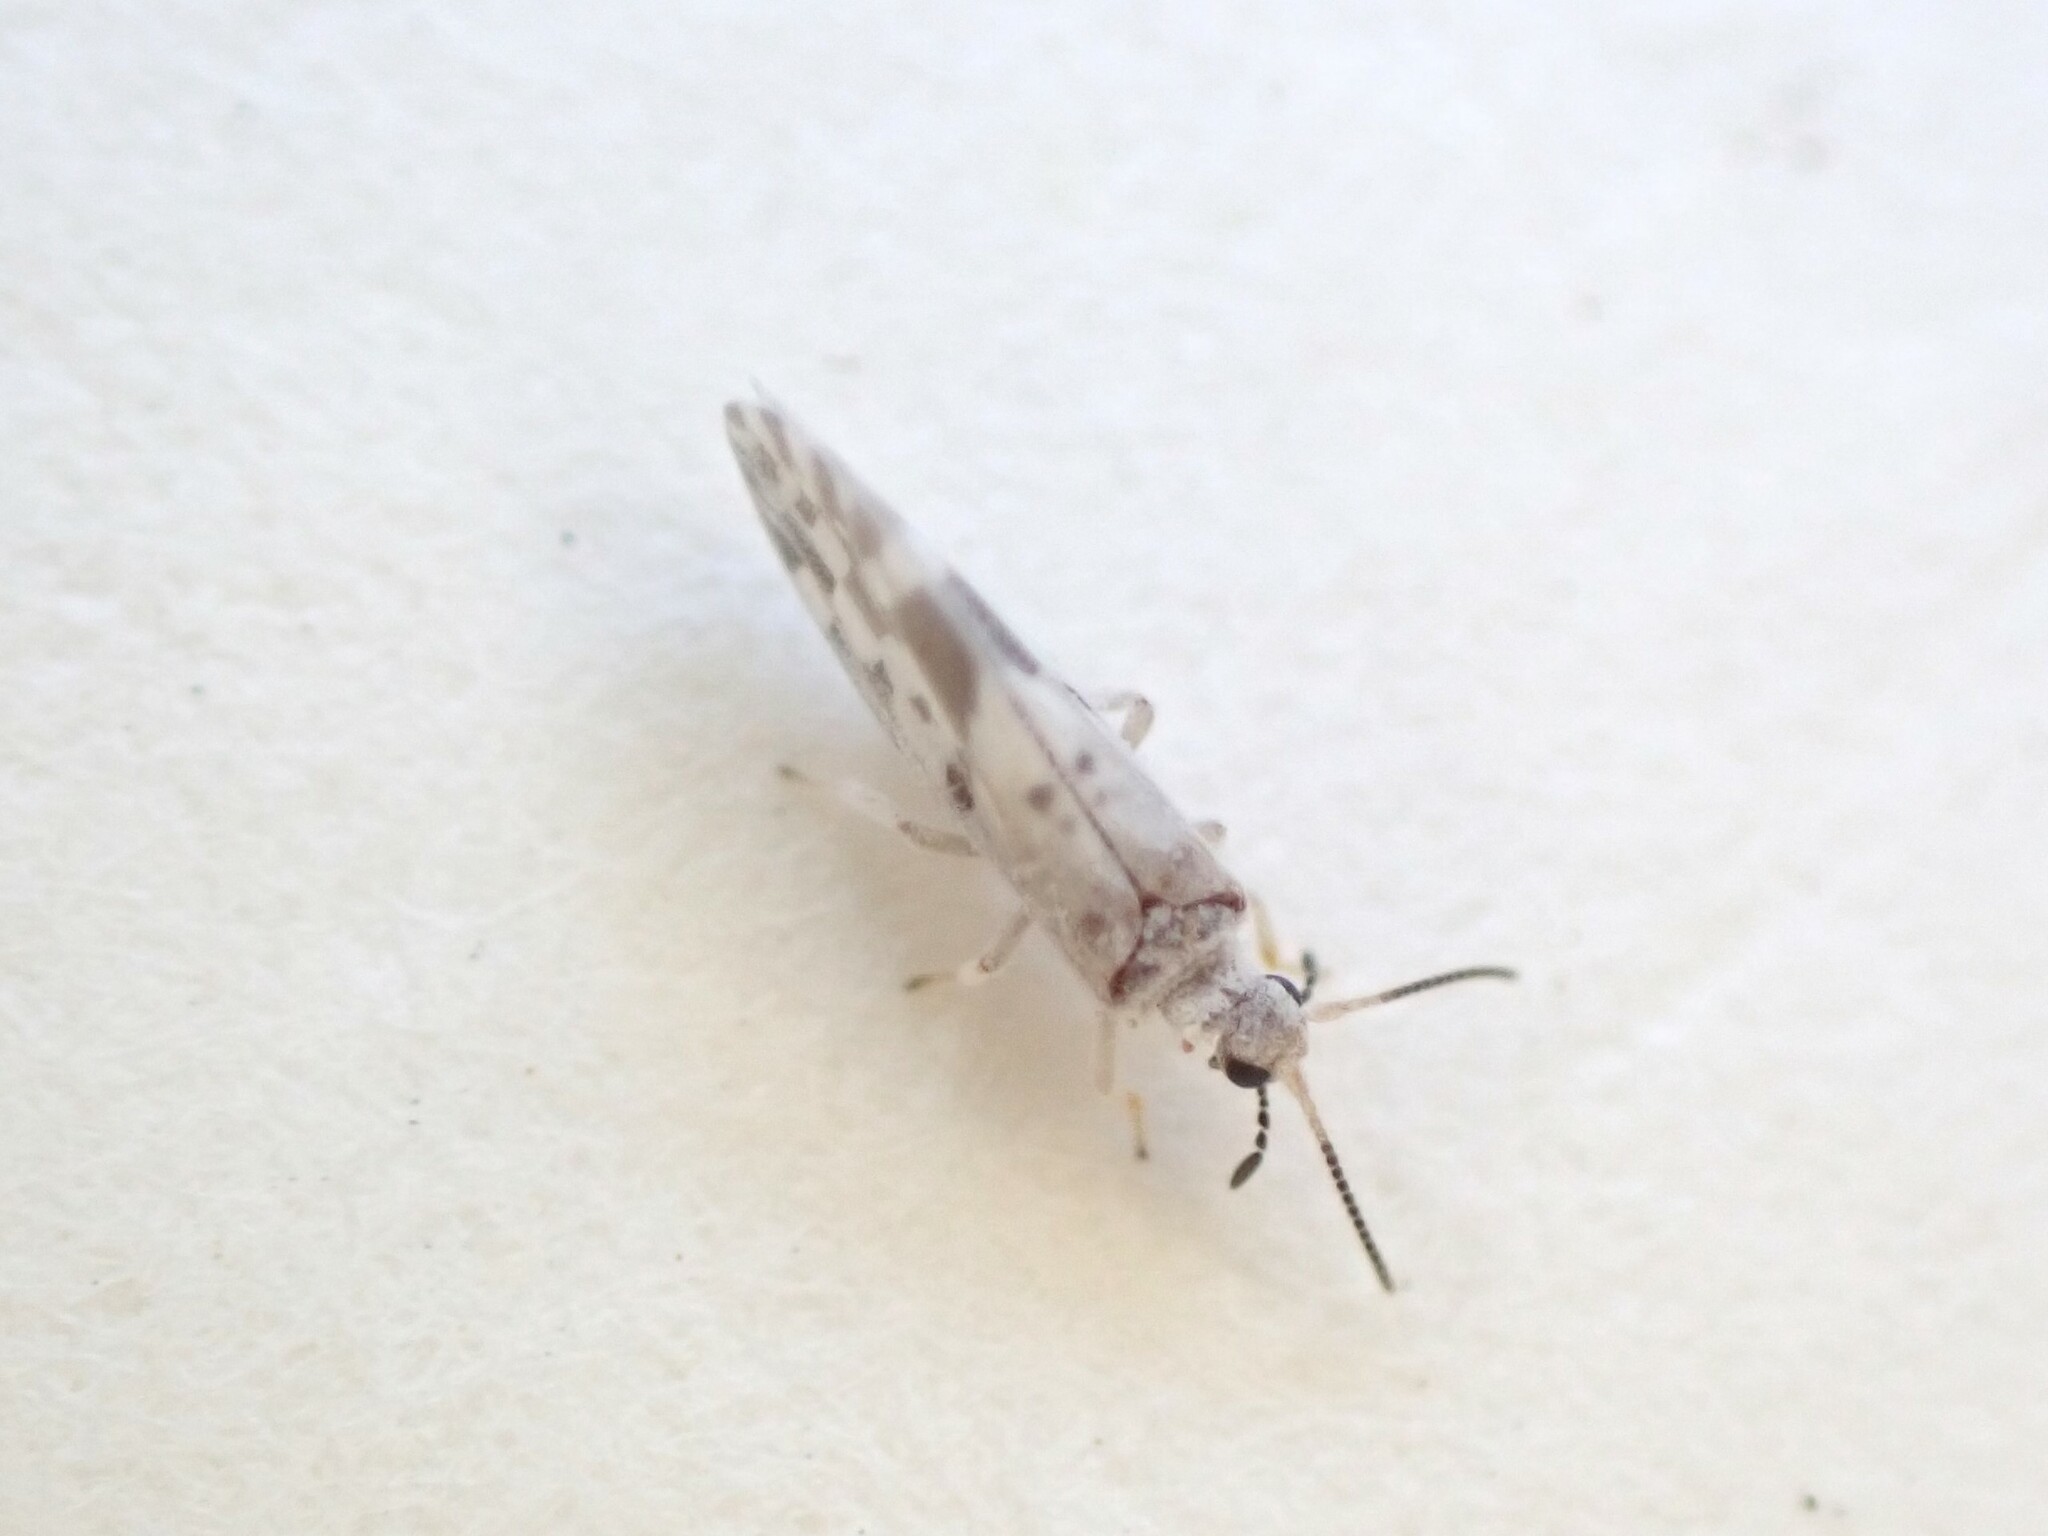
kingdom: Animalia
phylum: Arthropoda
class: Insecta
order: Neuroptera
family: Coniopterygidae
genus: Heteroconis
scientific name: Heteroconis ornata
